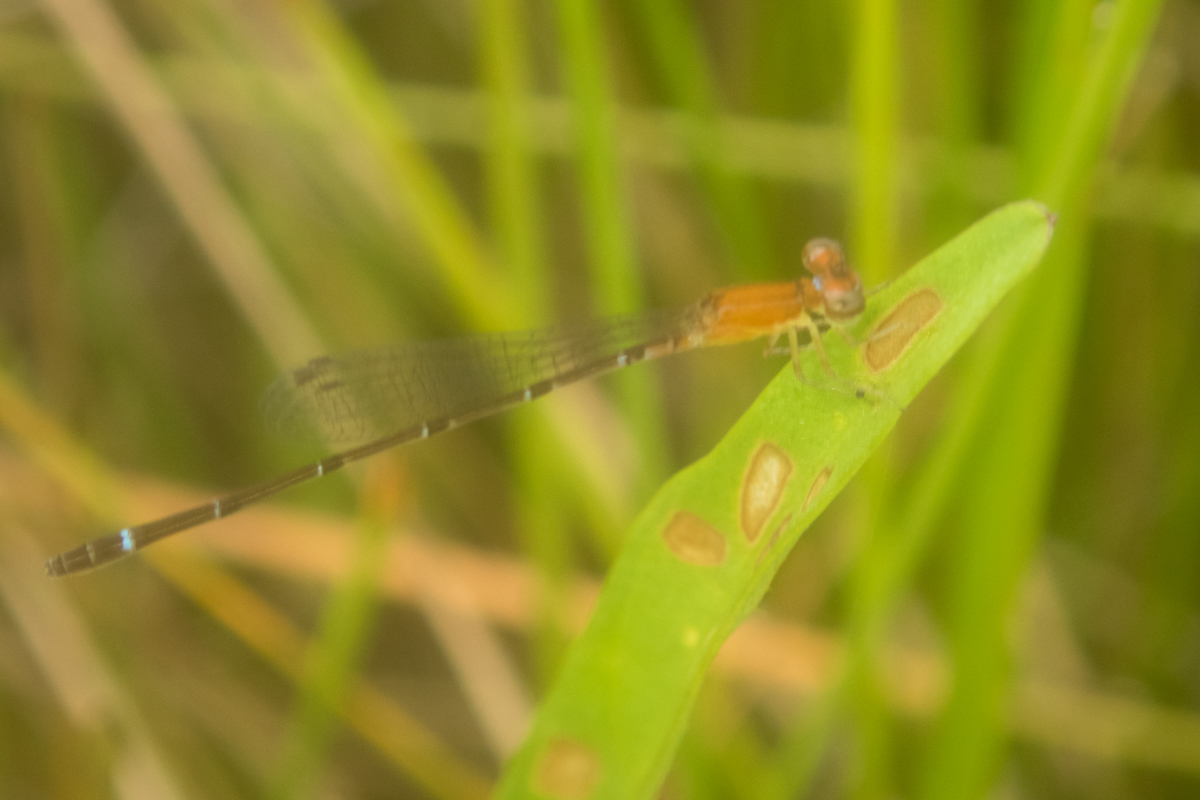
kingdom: Animalia
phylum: Arthropoda
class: Insecta
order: Odonata
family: Coenagrionidae
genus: Mortonagrion
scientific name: Mortonagrion falcatum
